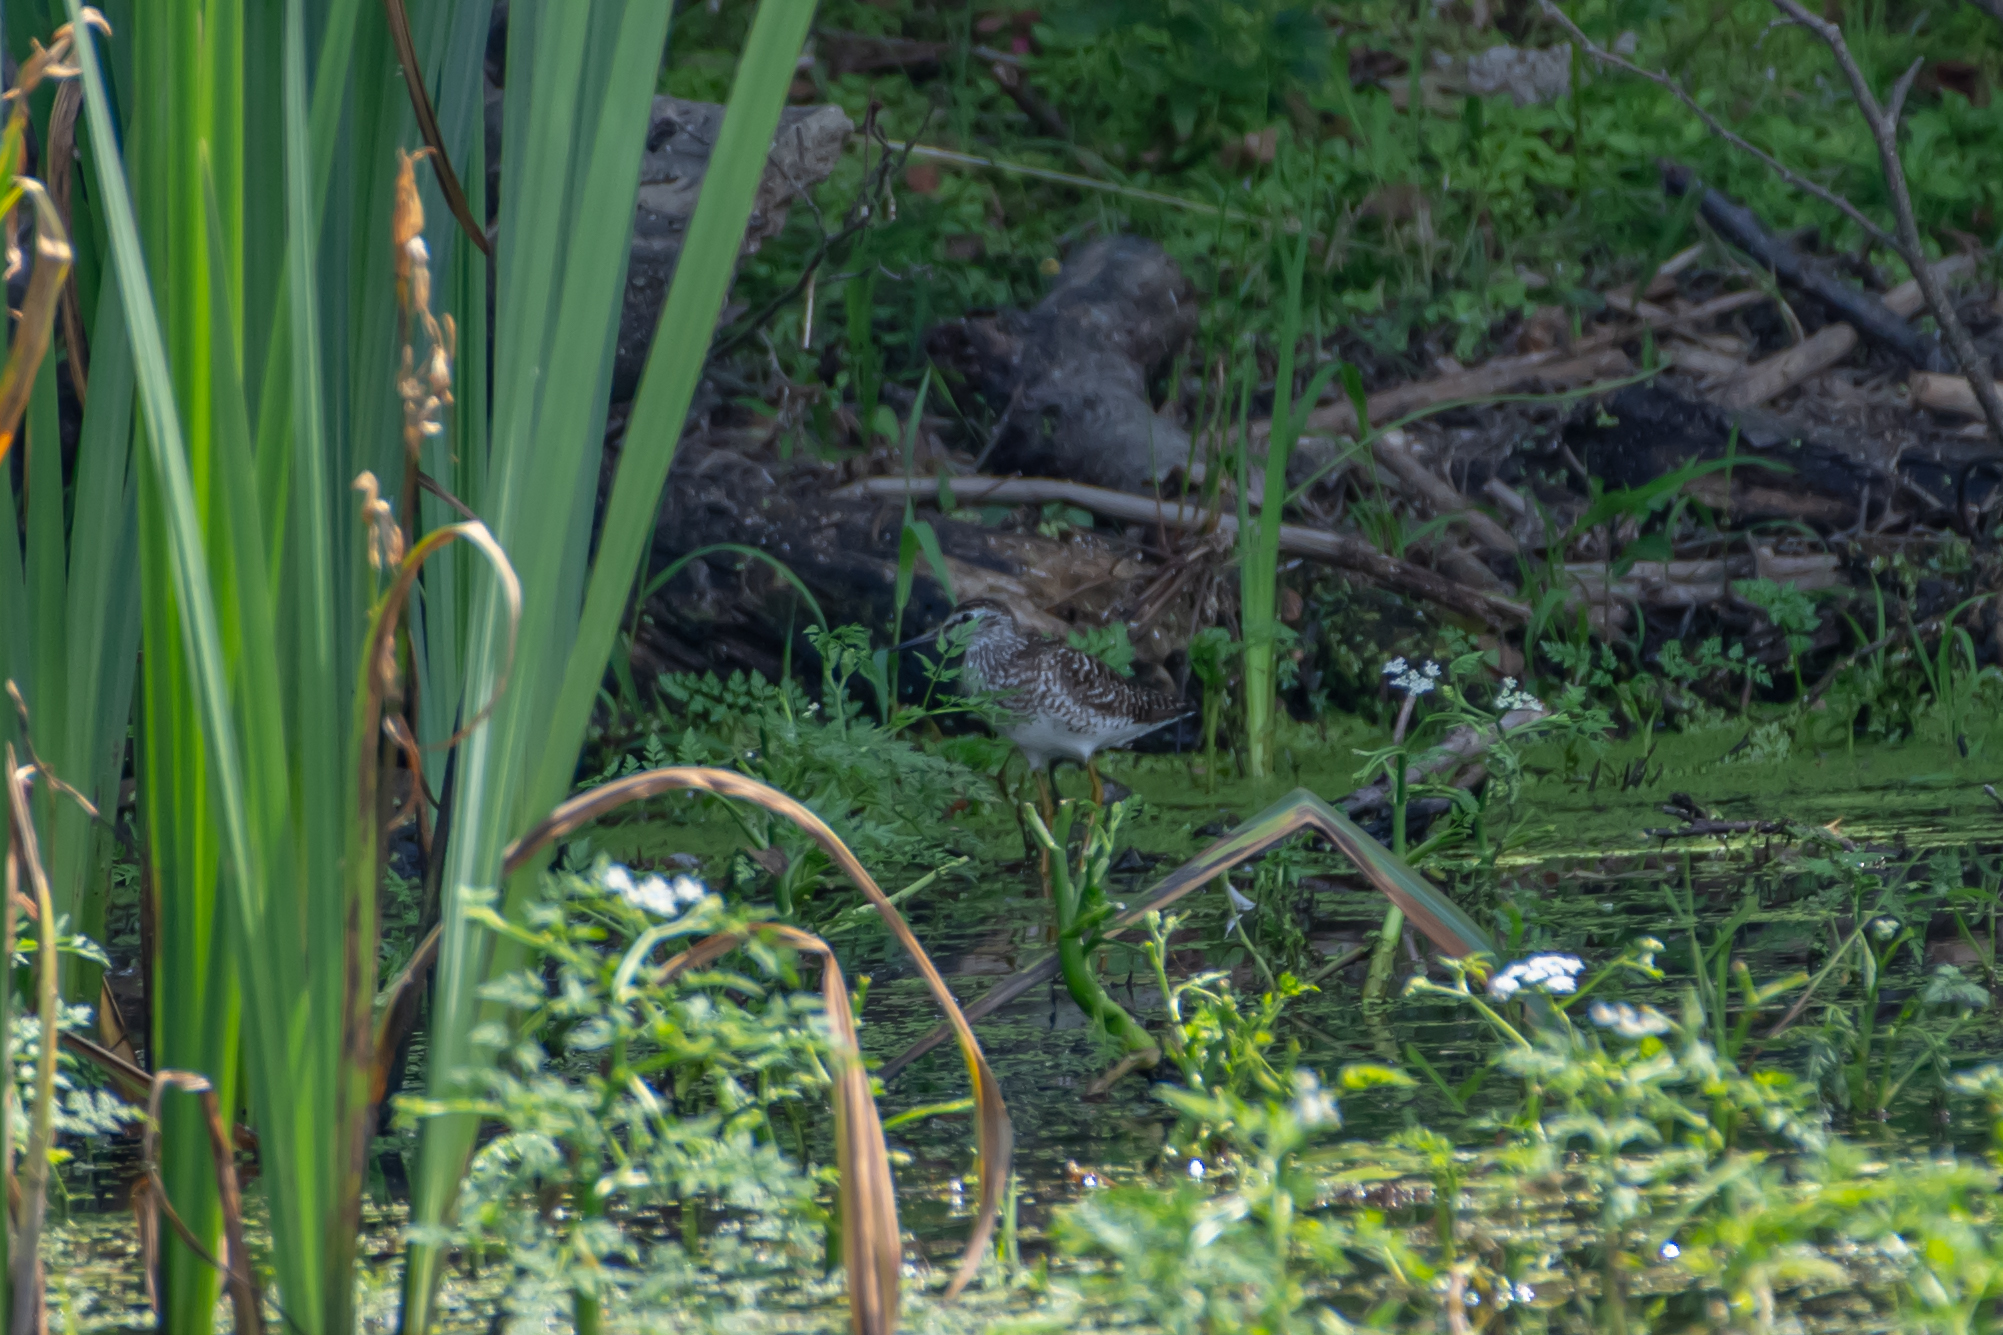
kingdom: Animalia
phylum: Chordata
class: Aves
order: Charadriiformes
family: Scolopacidae
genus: Tringa
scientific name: Tringa glareola
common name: Wood sandpiper
